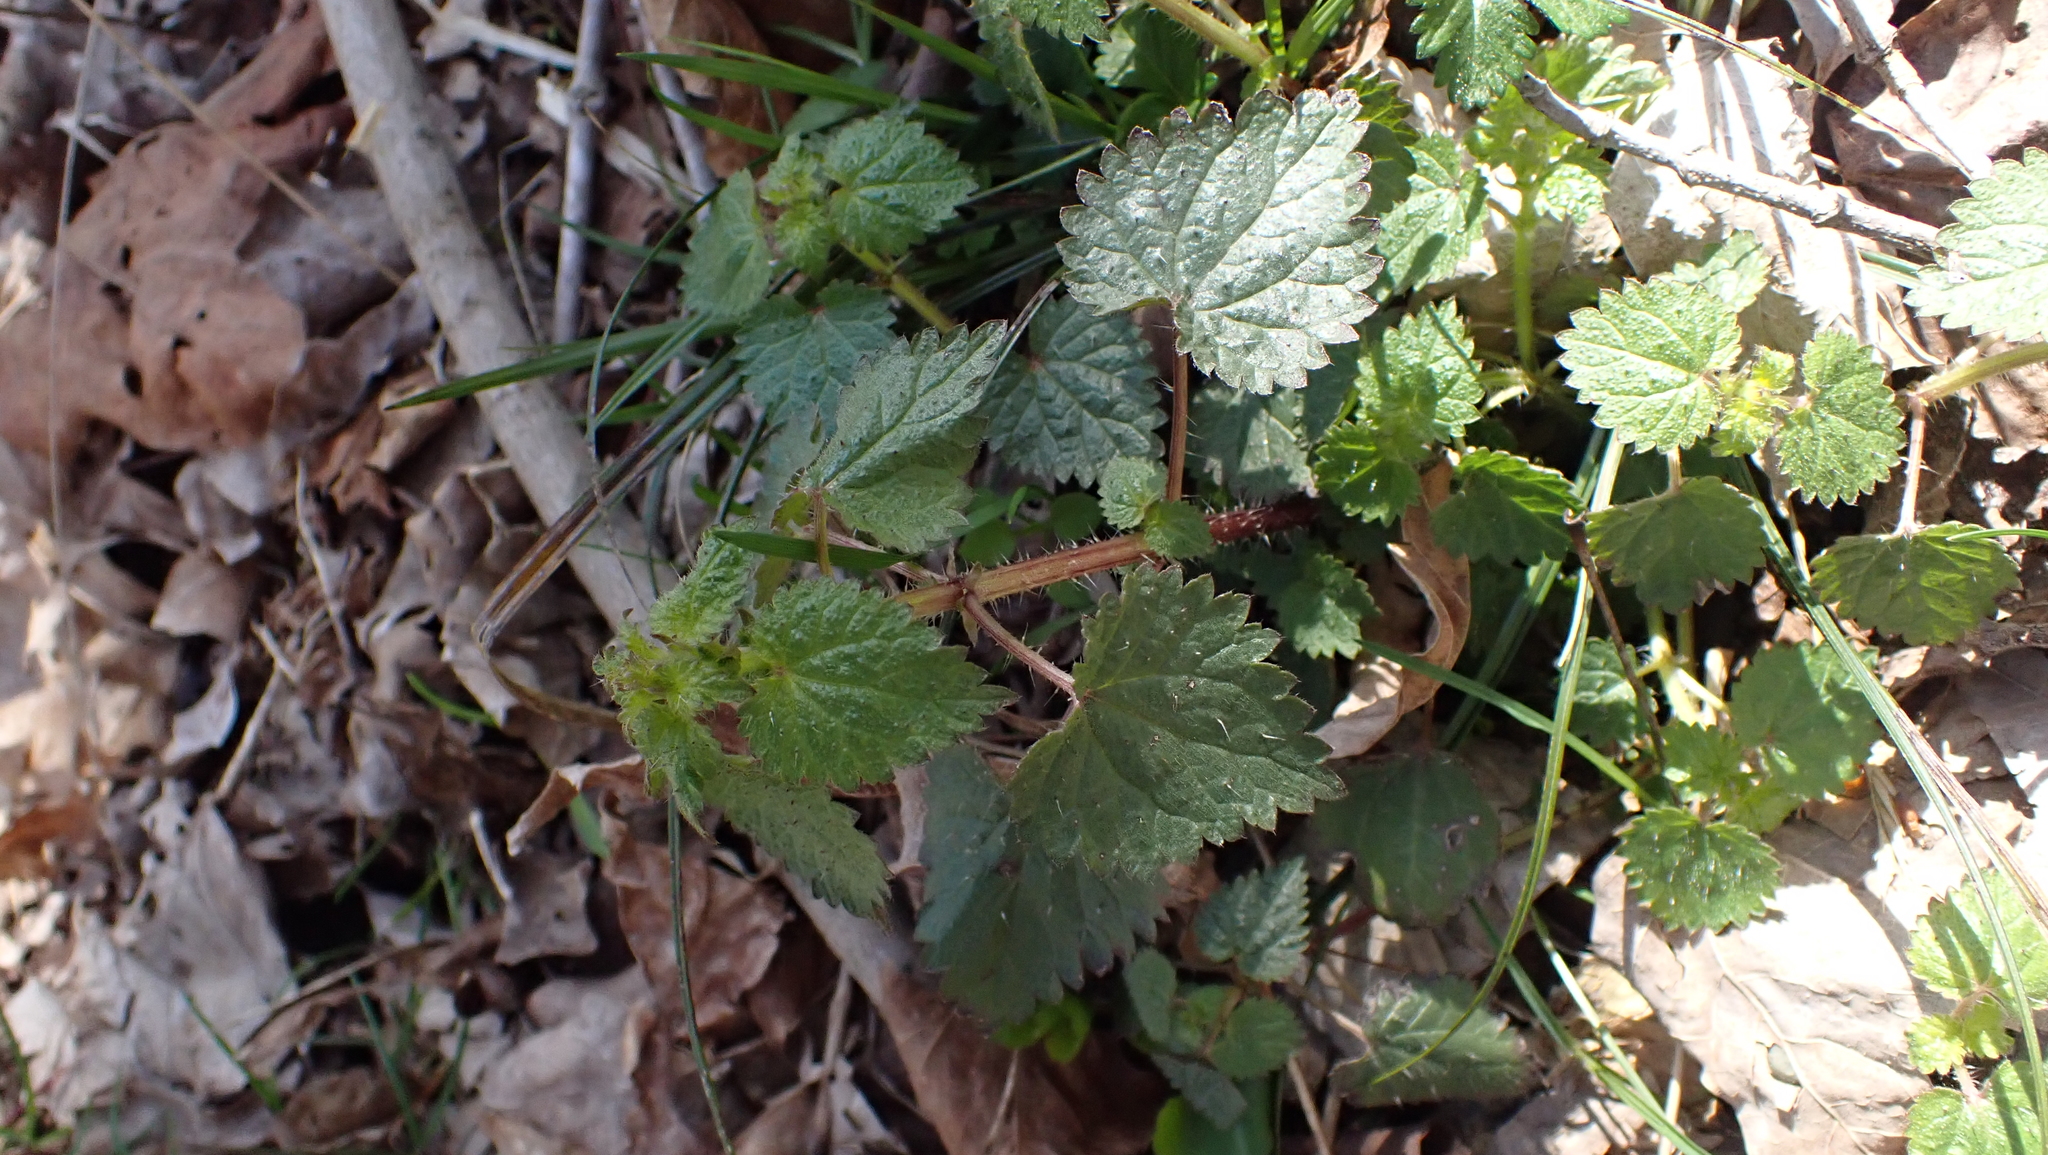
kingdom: Plantae
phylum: Tracheophyta
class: Magnoliopsida
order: Rosales
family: Urticaceae
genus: Urtica
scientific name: Urtica chamaedryoides
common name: Heart-leaf nettle
